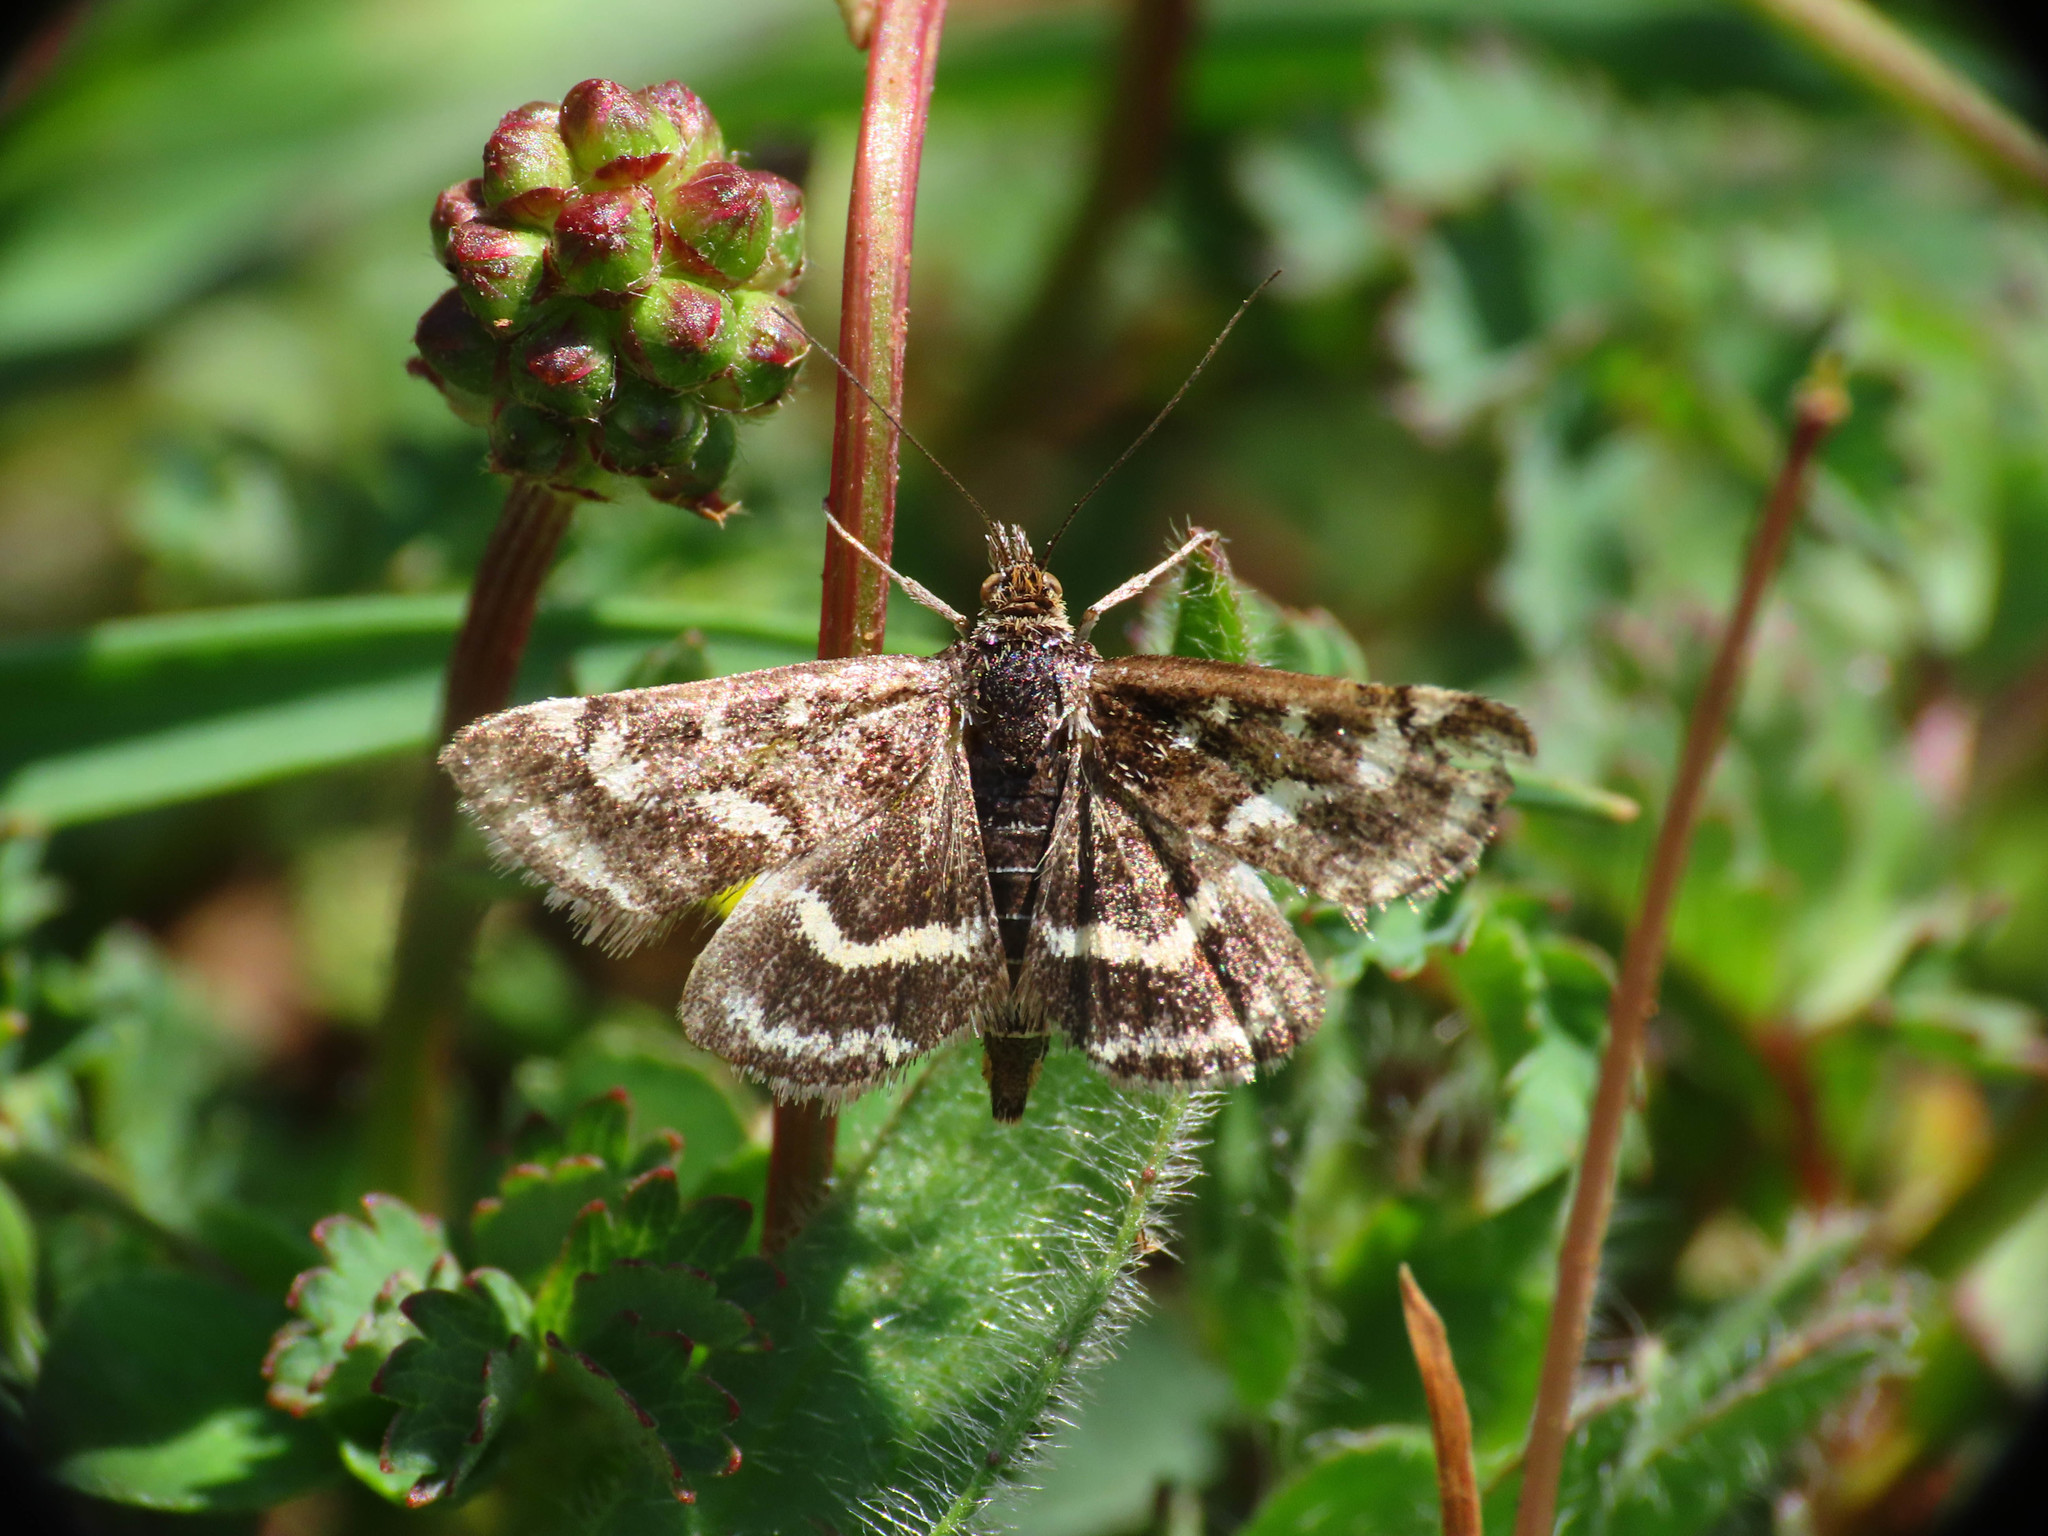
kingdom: Animalia
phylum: Arthropoda
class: Insecta
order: Lepidoptera
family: Crambidae
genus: Pyrausta
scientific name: Pyrausta nigrata
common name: Wavy-barred sable
